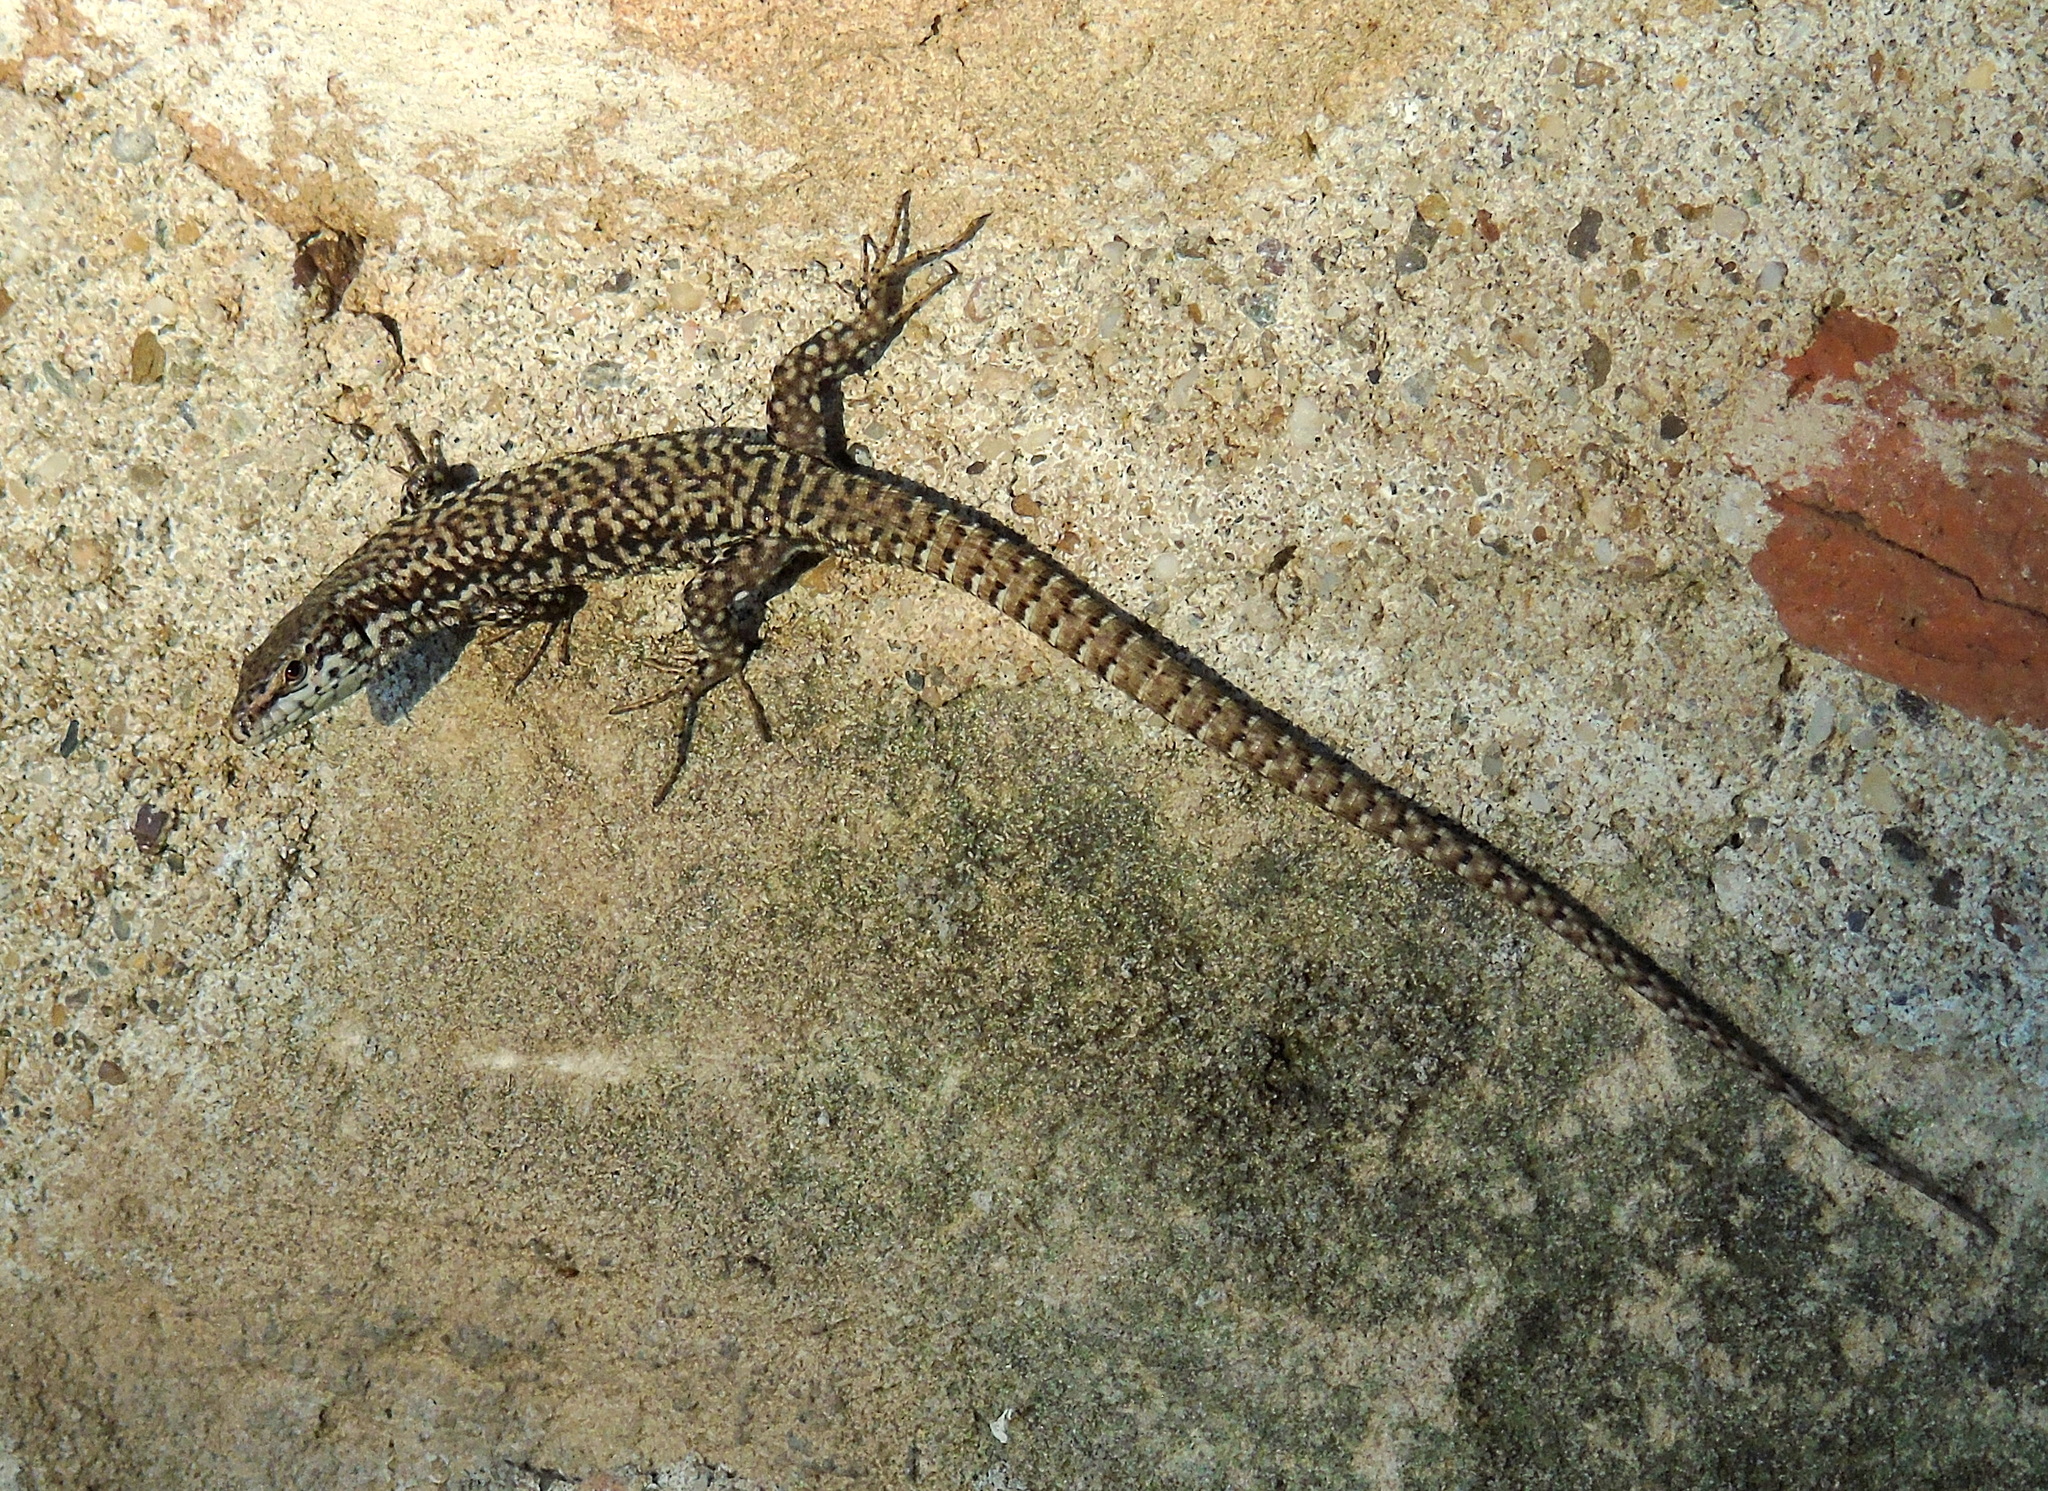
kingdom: Animalia
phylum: Chordata
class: Squamata
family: Lacertidae
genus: Podarcis
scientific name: Podarcis muralis
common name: Common wall lizard
